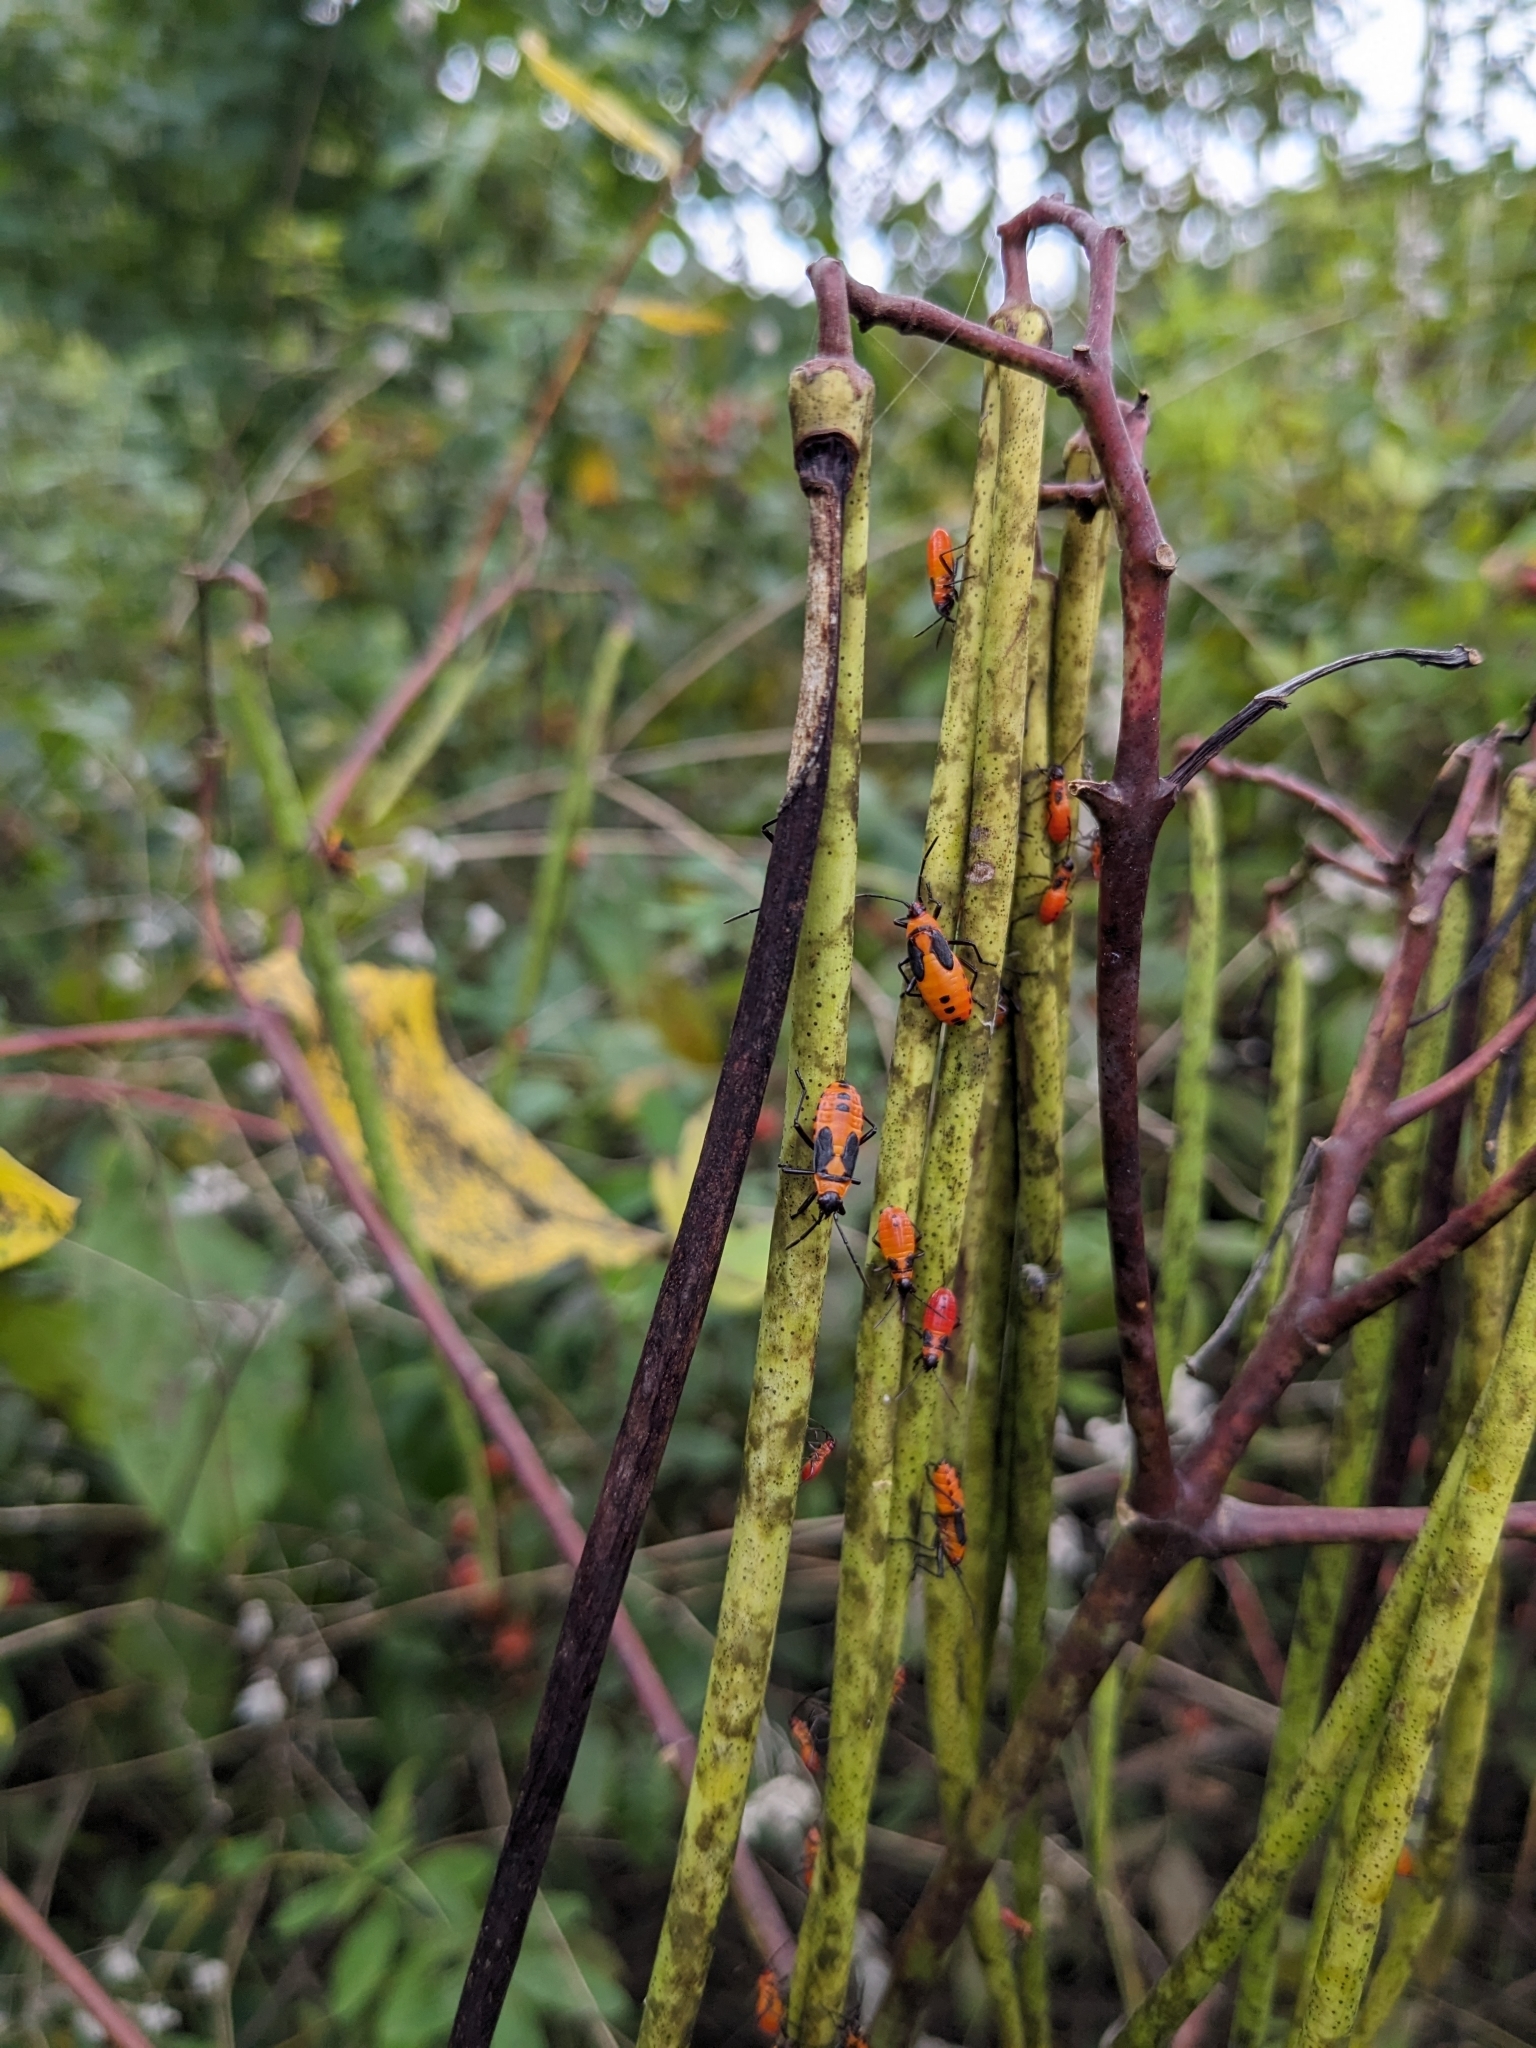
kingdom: Animalia
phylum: Arthropoda
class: Insecta
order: Hemiptera
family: Lygaeidae
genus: Oncopeltus
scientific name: Oncopeltus fasciatus
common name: Large milkweed bug
